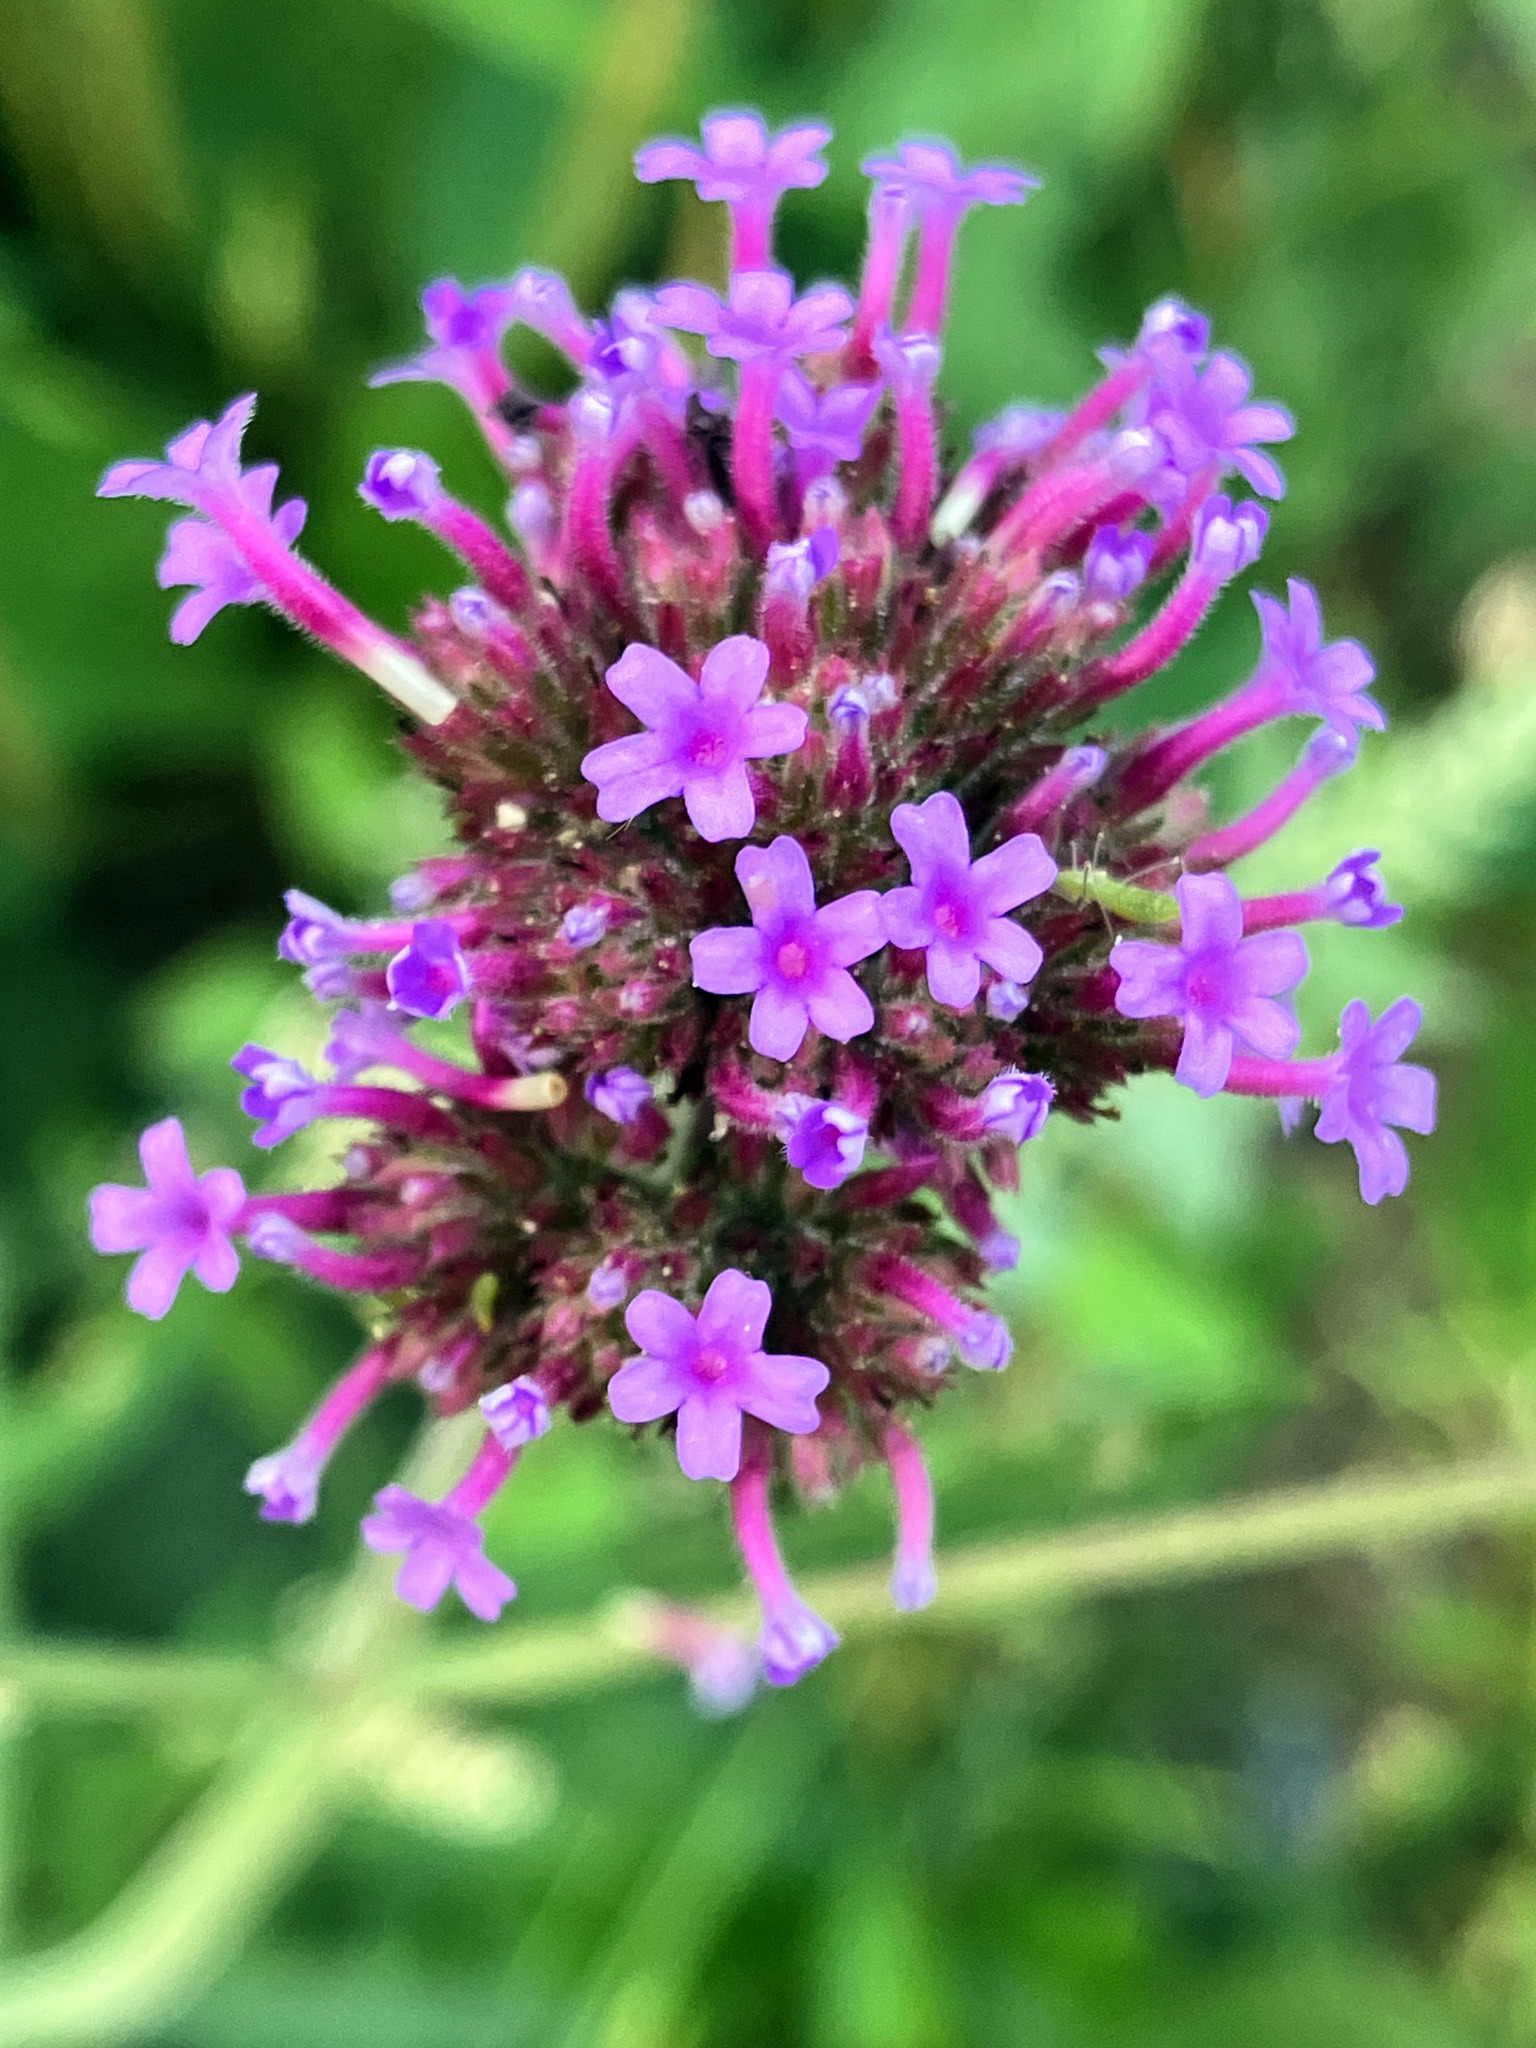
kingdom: Plantae
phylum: Tracheophyta
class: Magnoliopsida
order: Lamiales
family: Verbenaceae
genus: Verbena
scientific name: Verbena bonariensis
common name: Purpletop vervain
